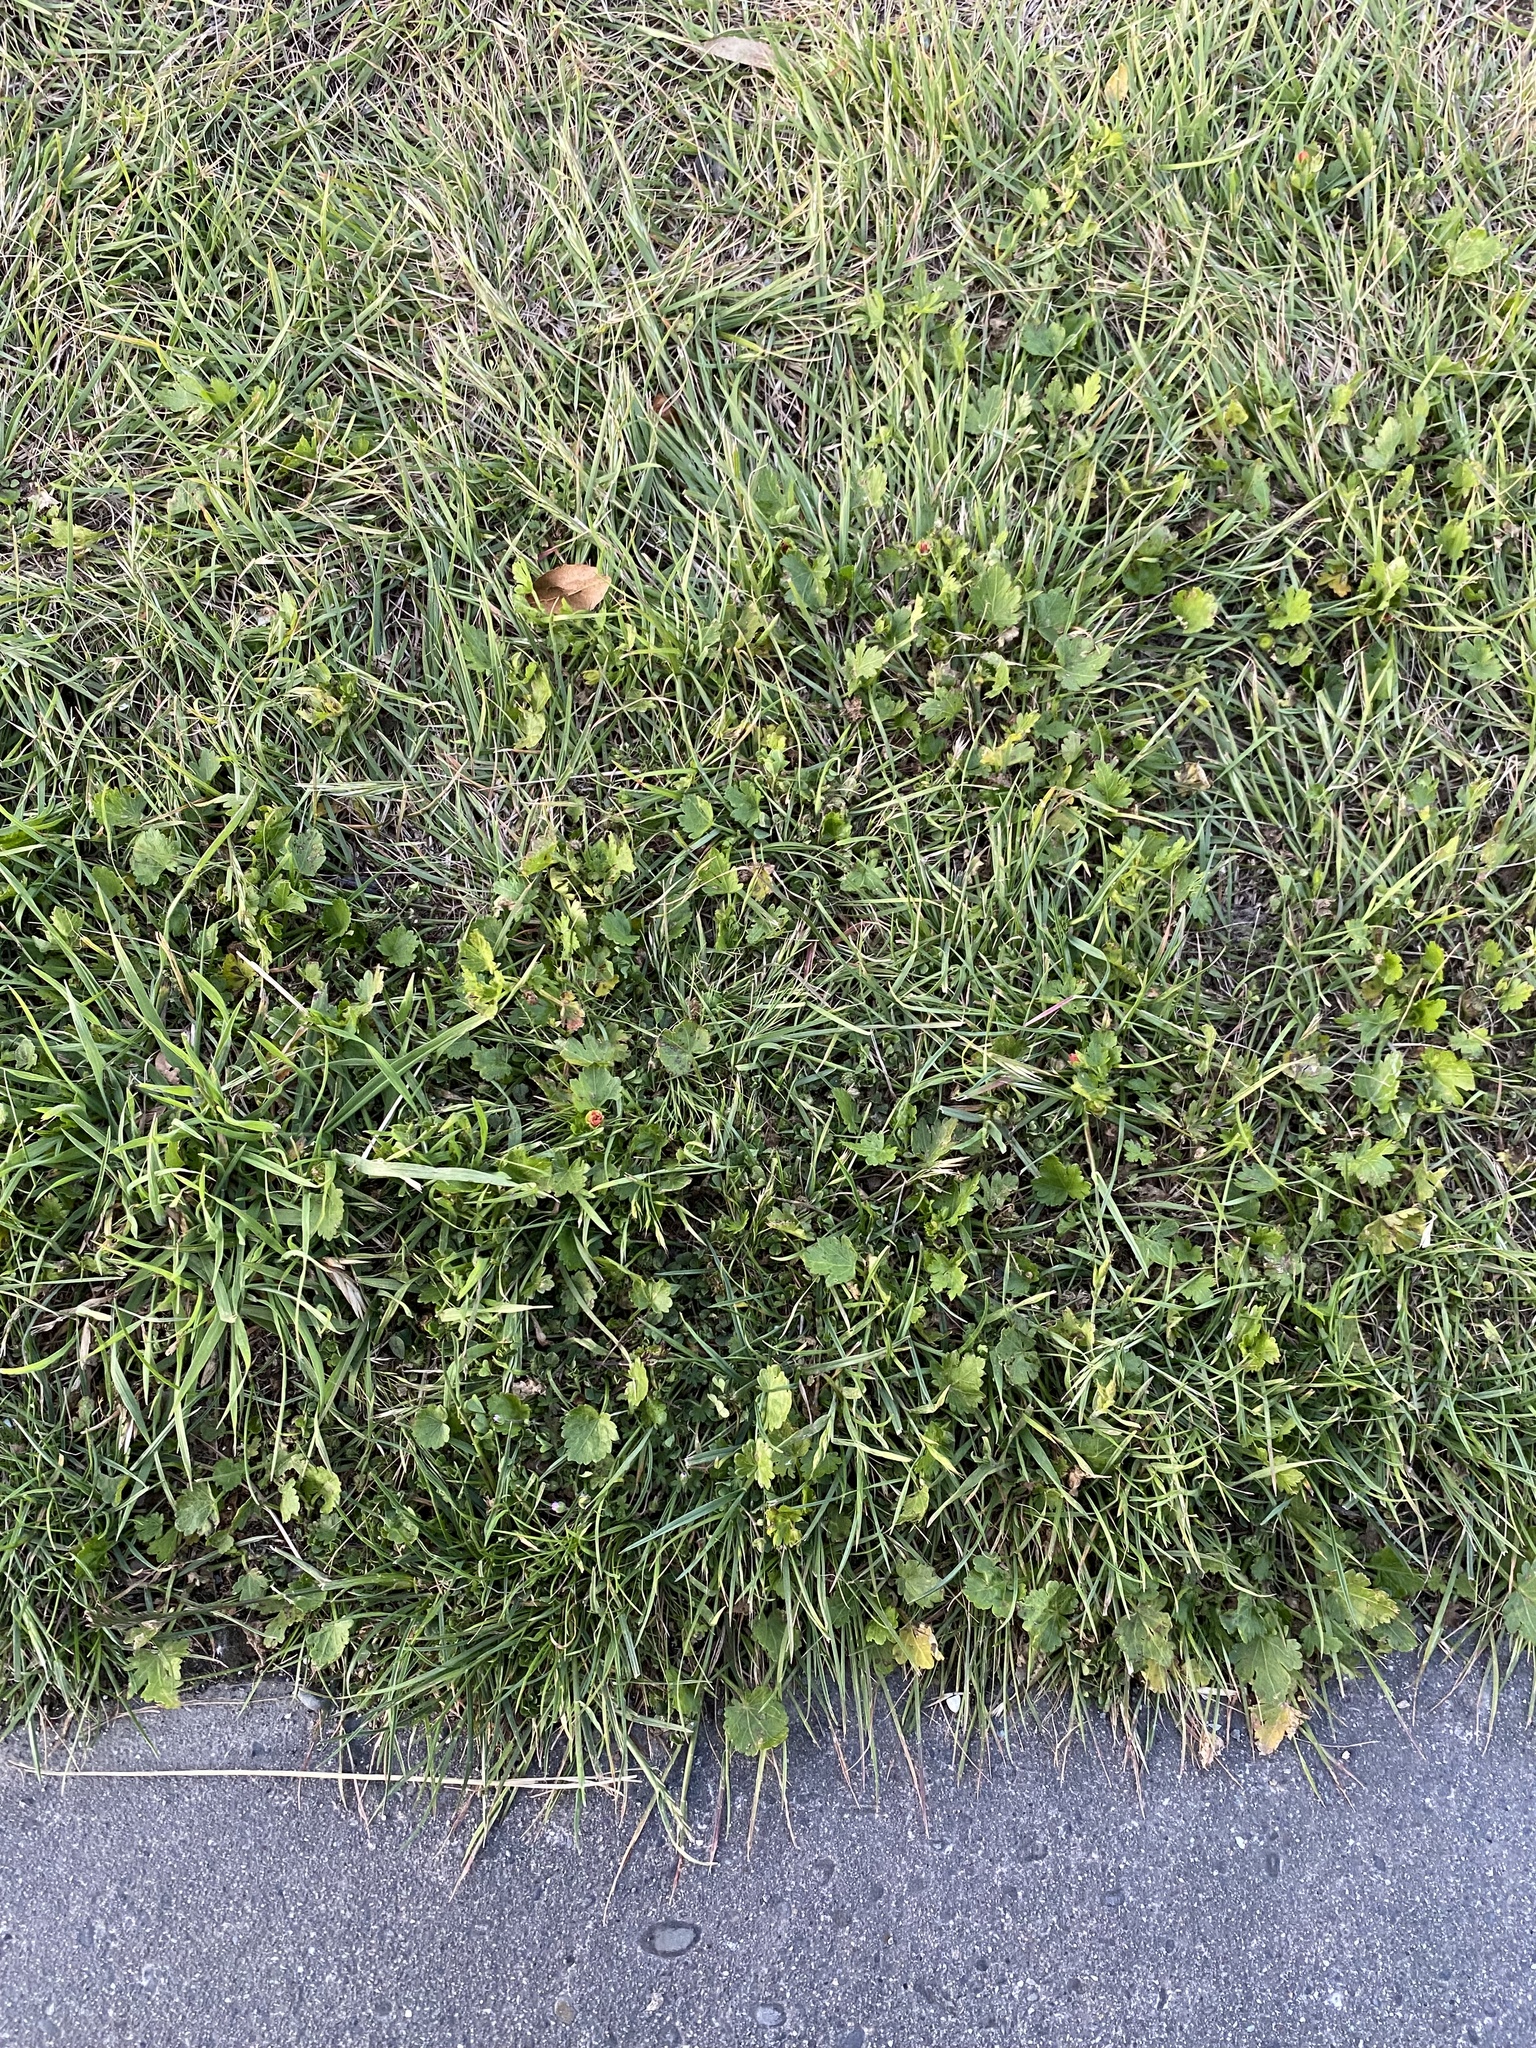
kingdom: Plantae
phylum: Tracheophyta
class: Magnoliopsida
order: Malvales
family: Malvaceae
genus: Modiola
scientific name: Modiola caroliniana
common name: Carolina bristlemallow
